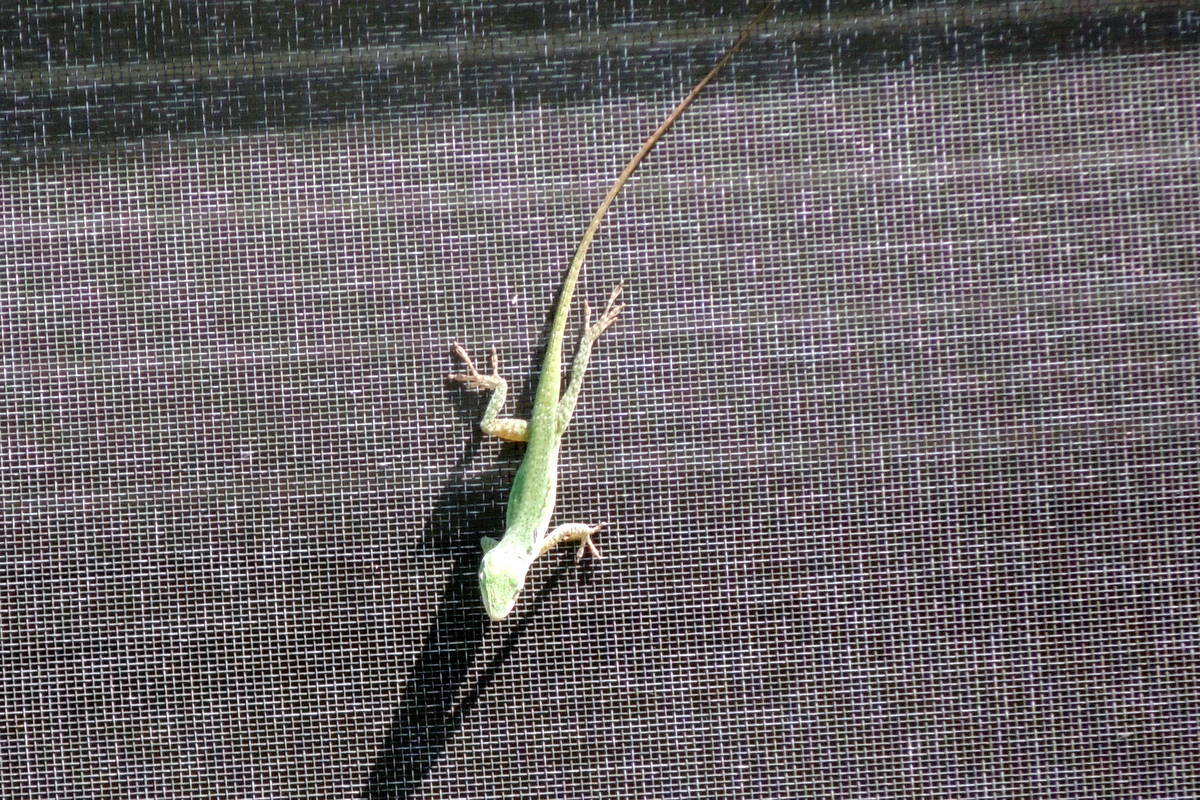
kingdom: Animalia
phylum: Chordata
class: Squamata
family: Dactyloidae
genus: Anolis
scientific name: Anolis carolinensis
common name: Green anole
